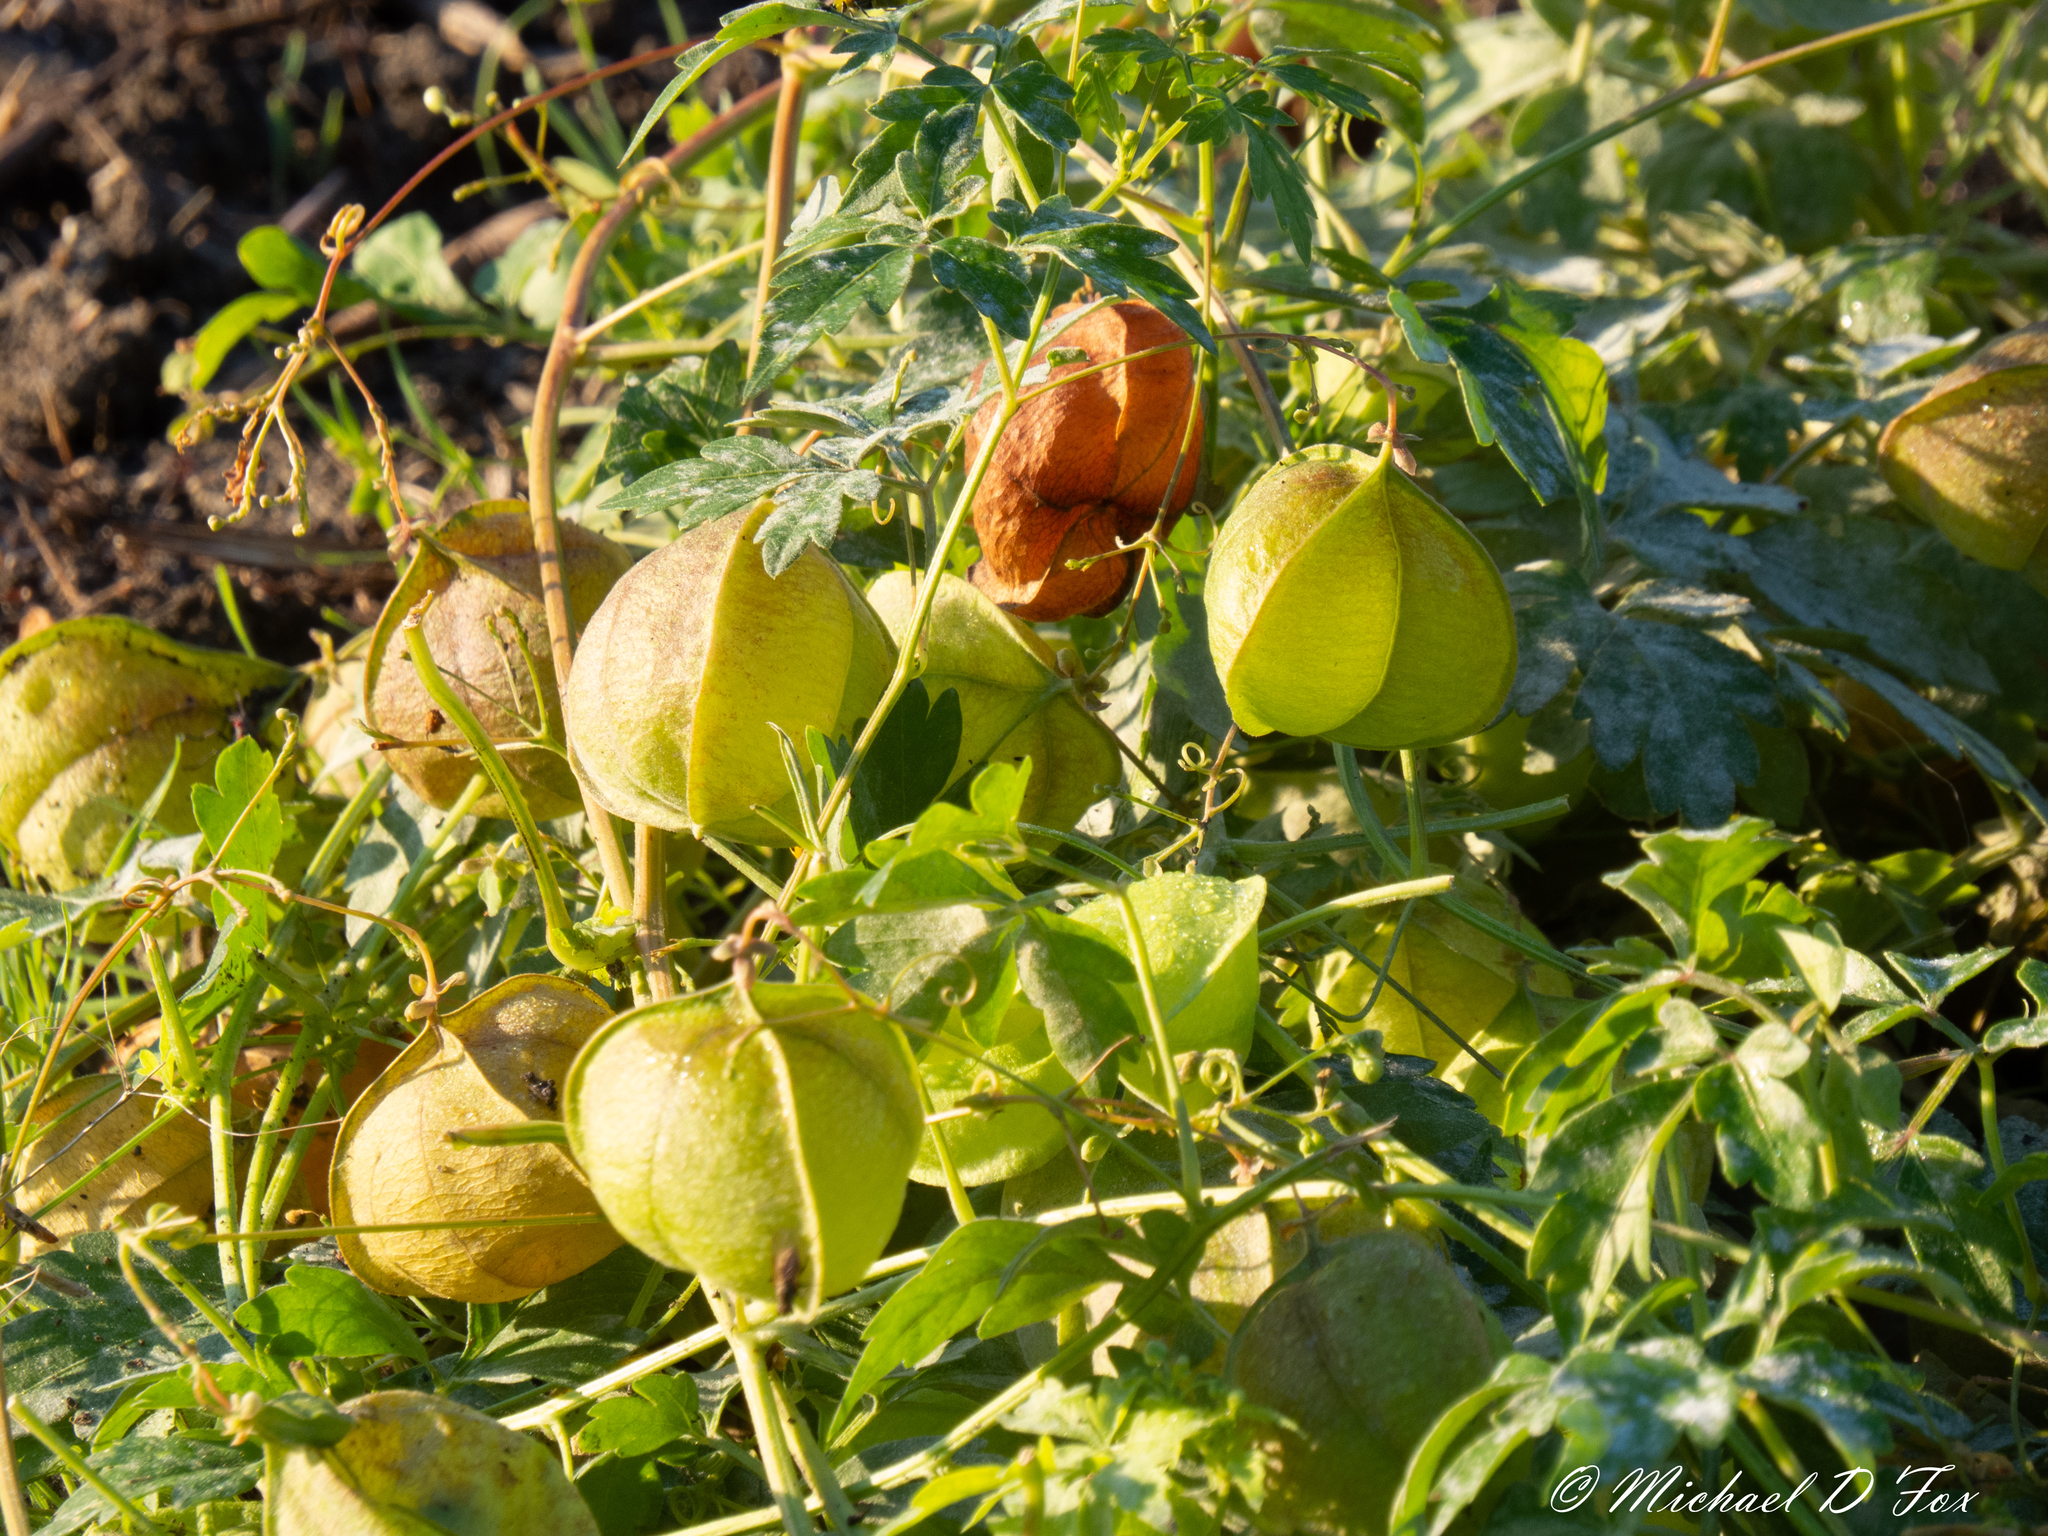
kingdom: Plantae
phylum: Tracheophyta
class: Magnoliopsida
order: Sapindales
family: Sapindaceae
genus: Cardiospermum
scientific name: Cardiospermum halicacabum
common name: Balloon vine
